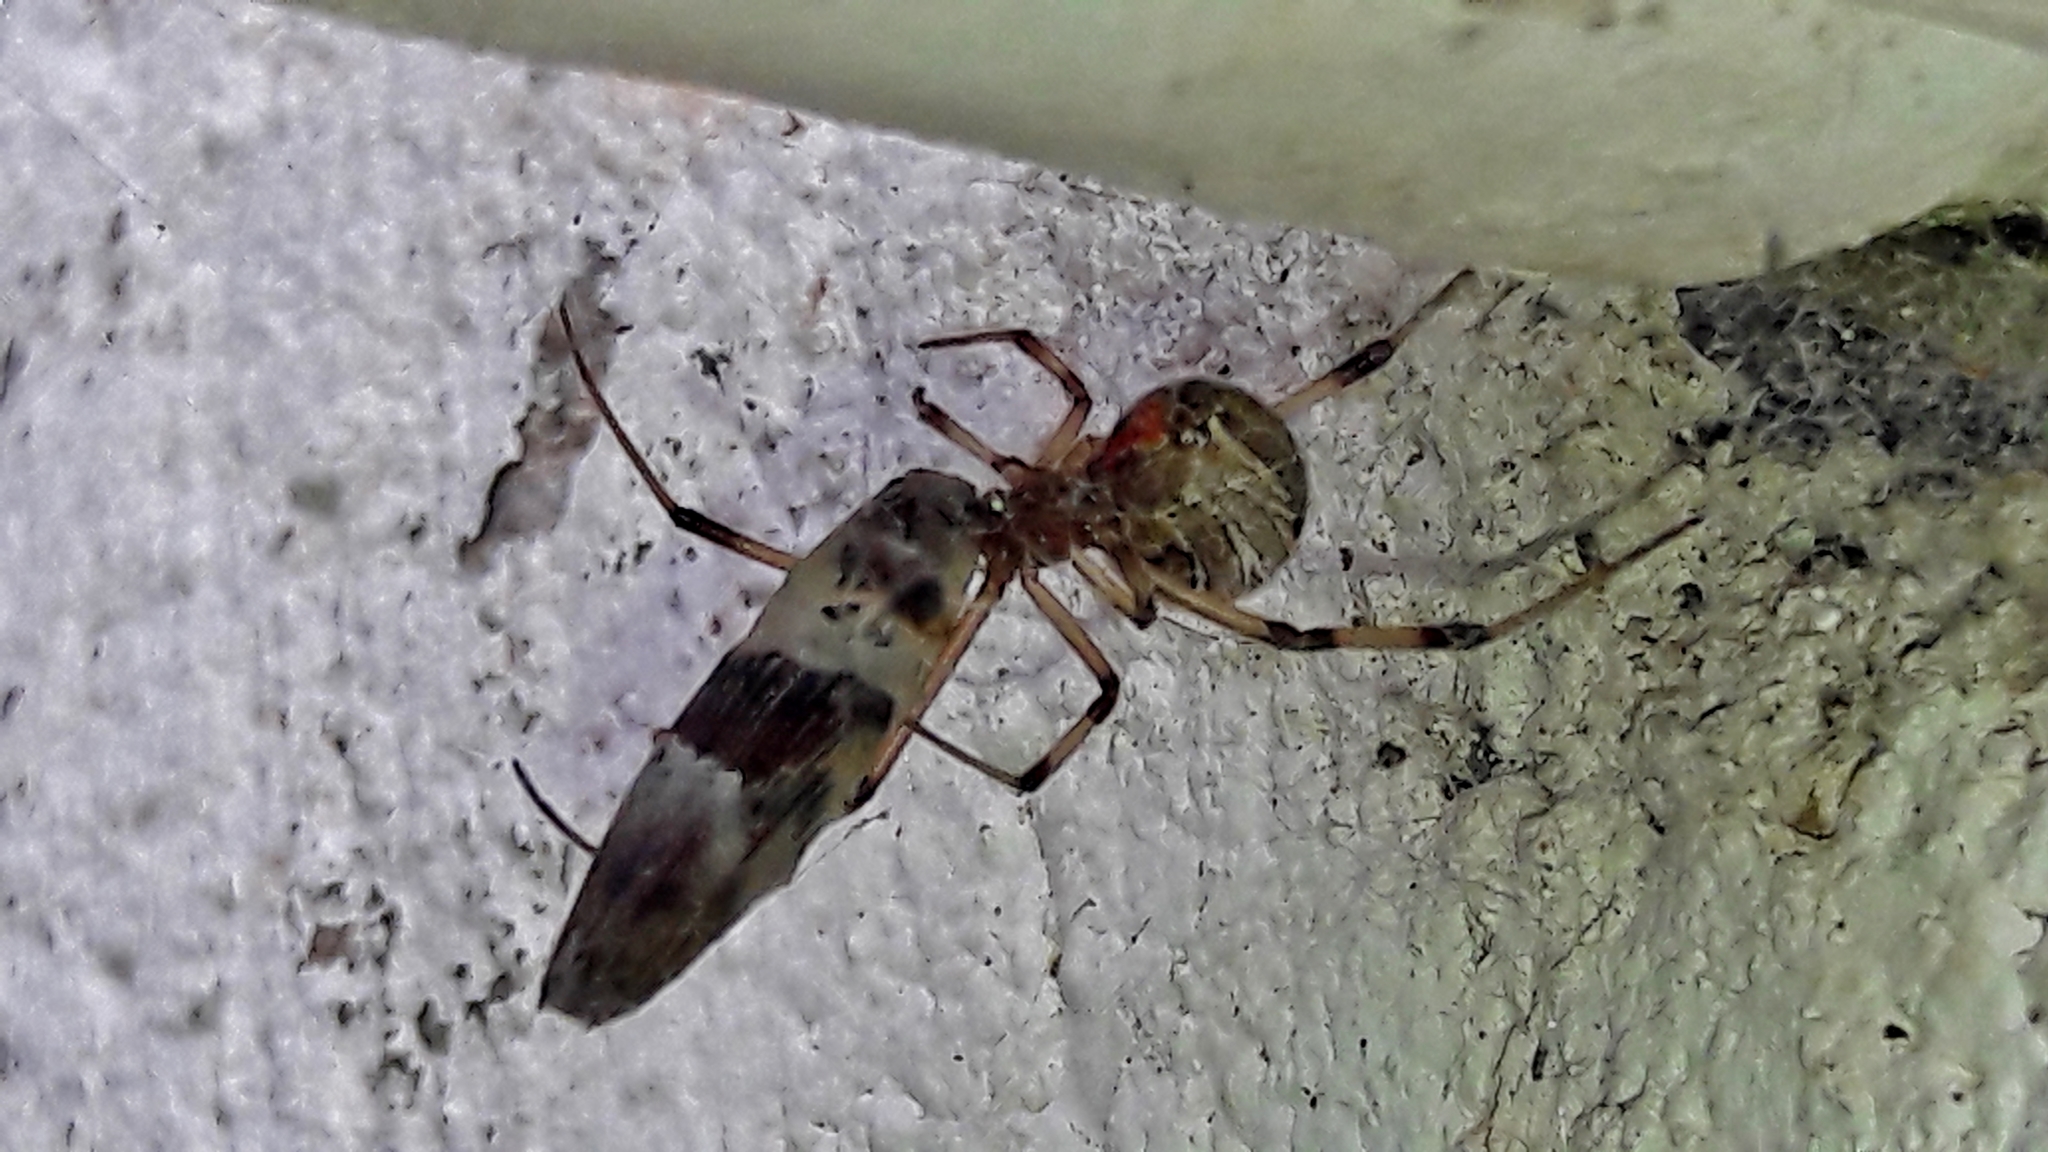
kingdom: Animalia
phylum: Arthropoda
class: Arachnida
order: Araneae
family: Theridiidae
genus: Latrodectus
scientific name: Latrodectus geometricus
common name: Brown widow spider
